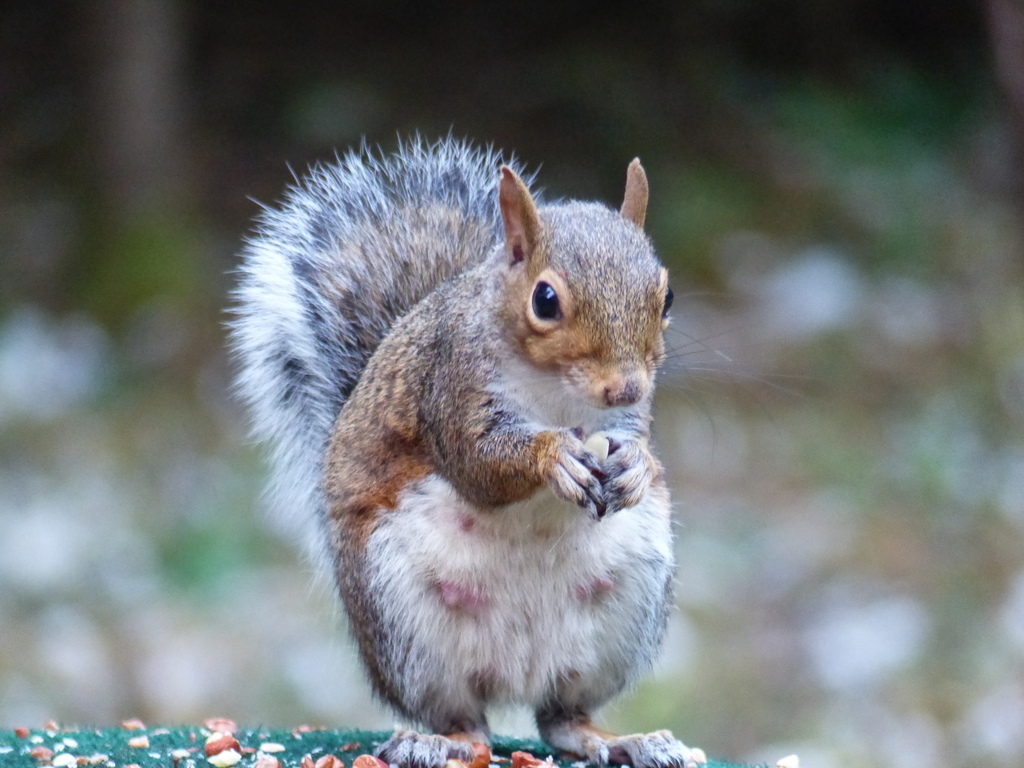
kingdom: Animalia
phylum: Chordata
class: Mammalia
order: Rodentia
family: Sciuridae
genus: Sciurus
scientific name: Sciurus carolinensis
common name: Eastern gray squirrel
